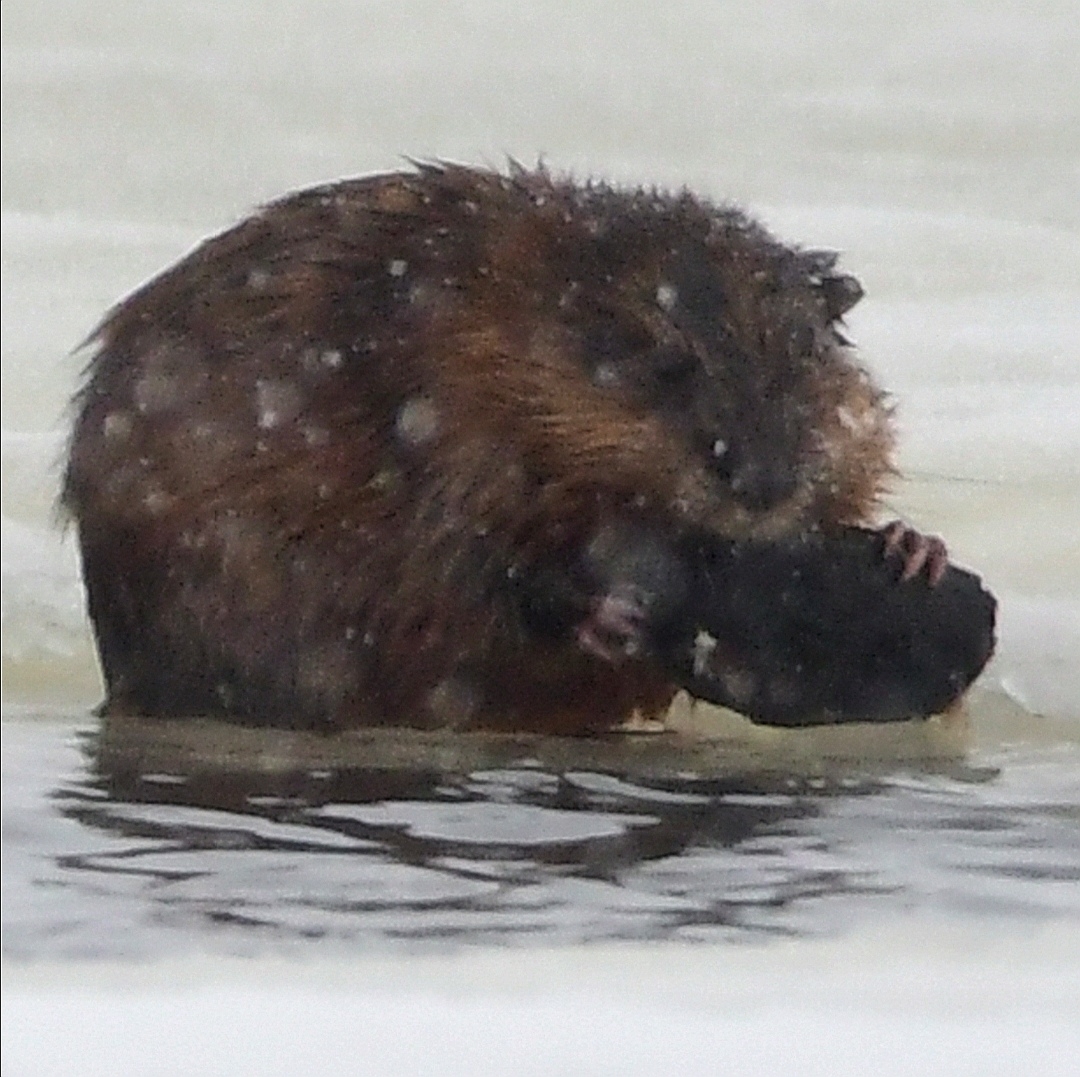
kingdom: Animalia
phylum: Chordata
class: Mammalia
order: Rodentia
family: Cricetidae
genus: Ondatra
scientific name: Ondatra zibethicus
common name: Muskrat
